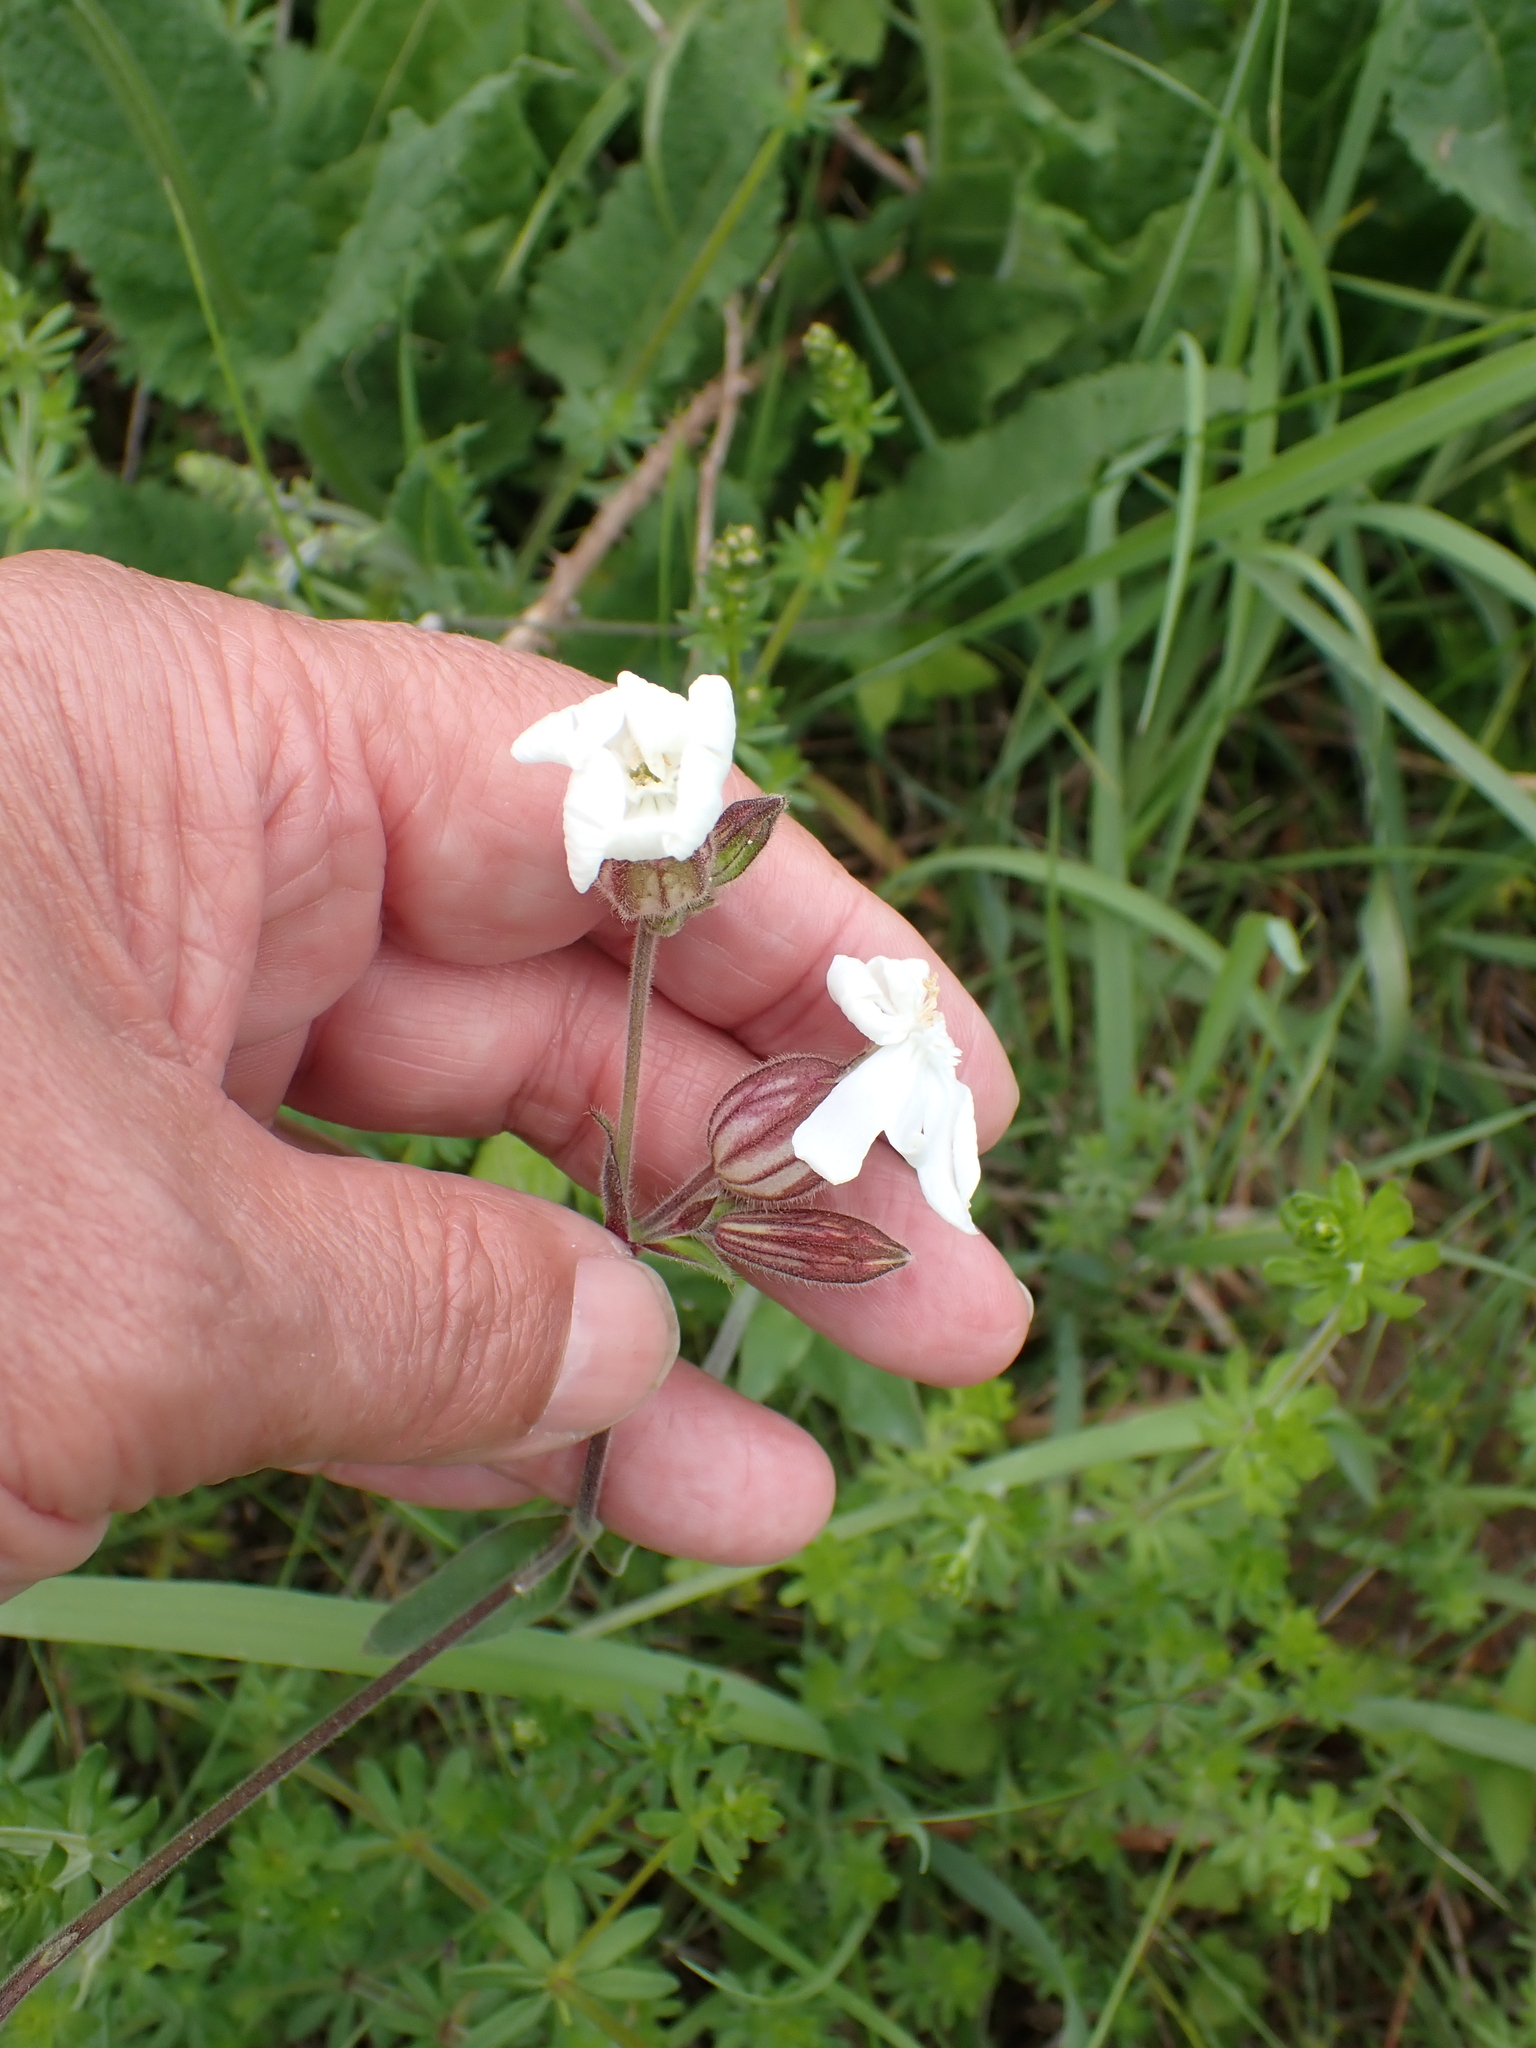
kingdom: Plantae
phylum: Tracheophyta
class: Magnoliopsida
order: Caryophyllales
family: Caryophyllaceae
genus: Silene
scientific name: Silene latifolia
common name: White campion
